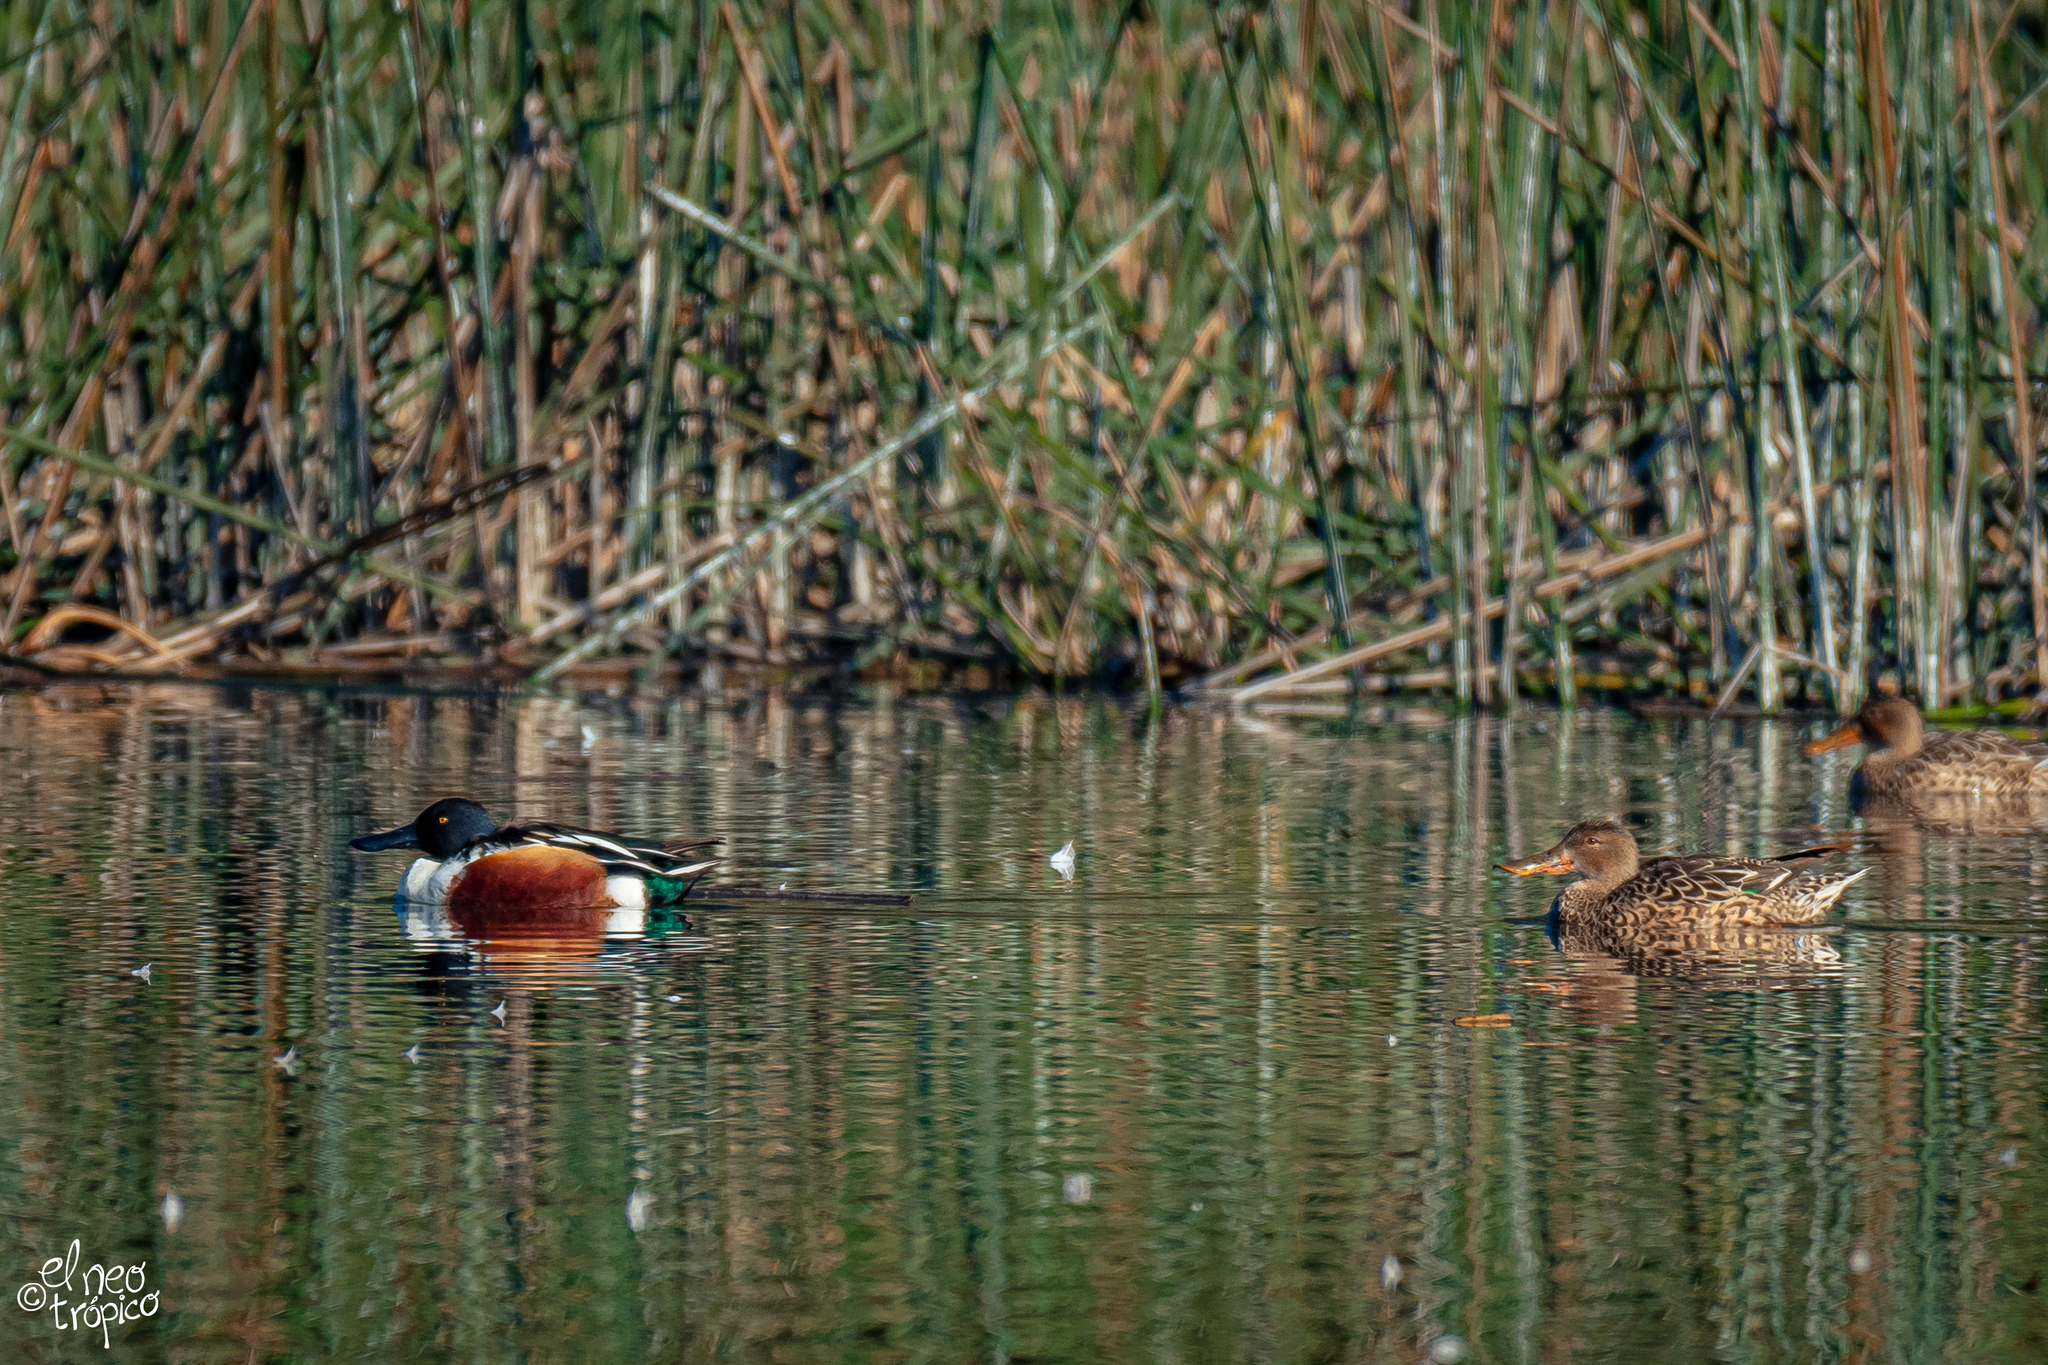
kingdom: Animalia
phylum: Chordata
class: Aves
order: Anseriformes
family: Anatidae
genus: Spatula
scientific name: Spatula clypeata
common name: Northern shoveler
